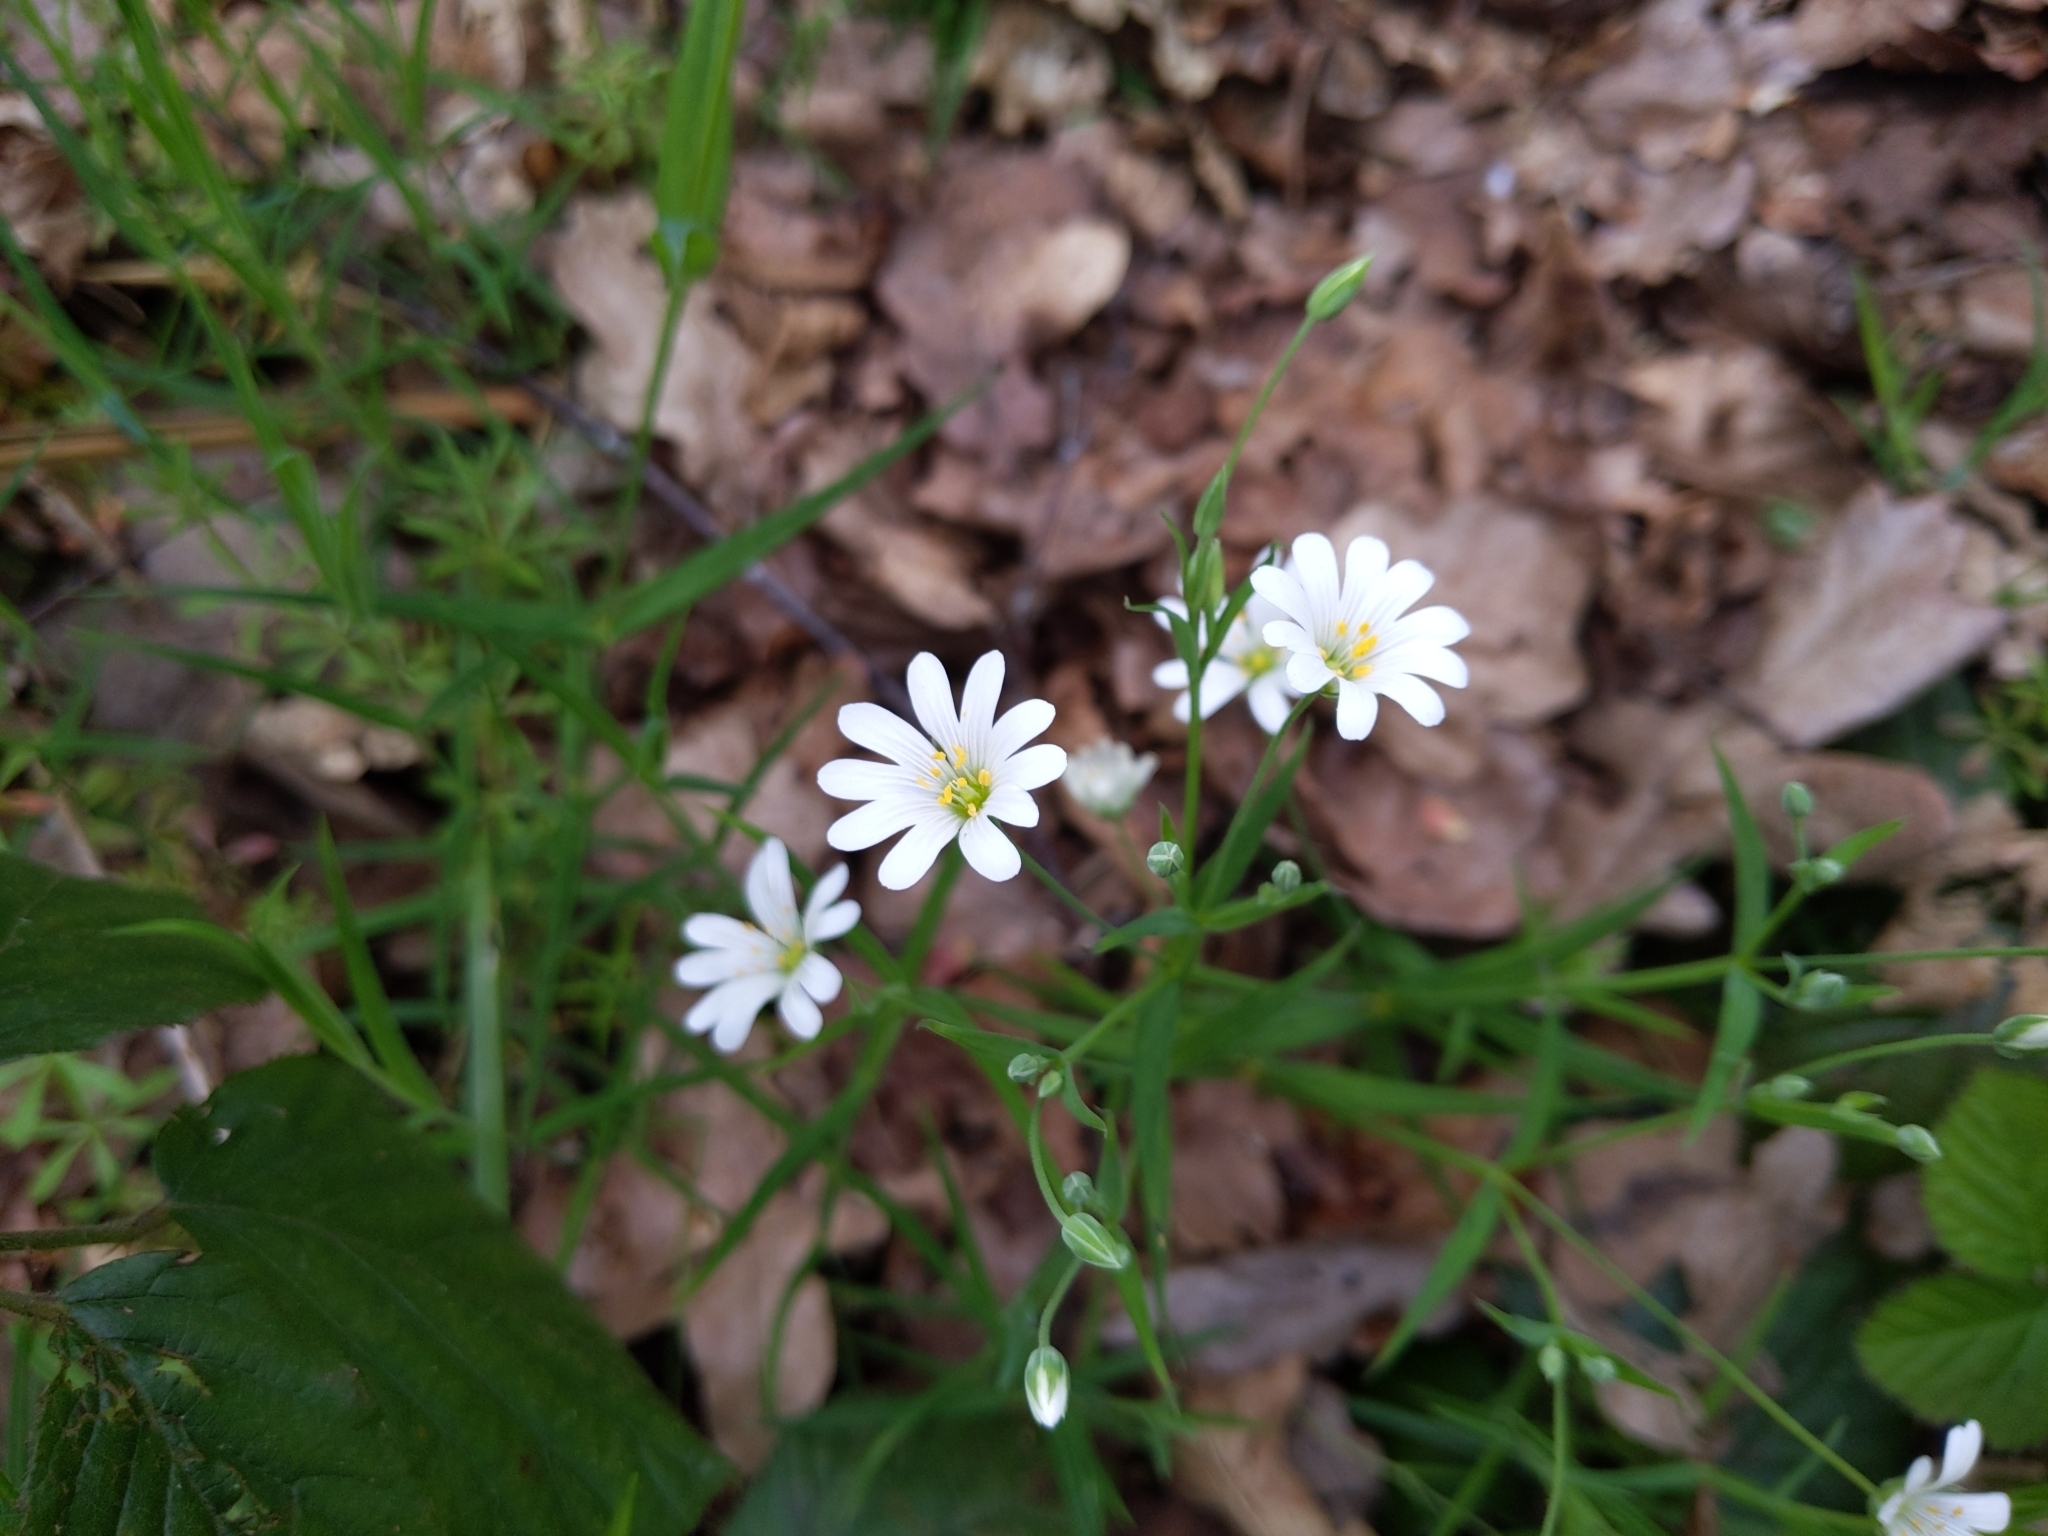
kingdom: Plantae
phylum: Tracheophyta
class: Magnoliopsida
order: Caryophyllales
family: Caryophyllaceae
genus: Rabelera
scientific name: Rabelera holostea
